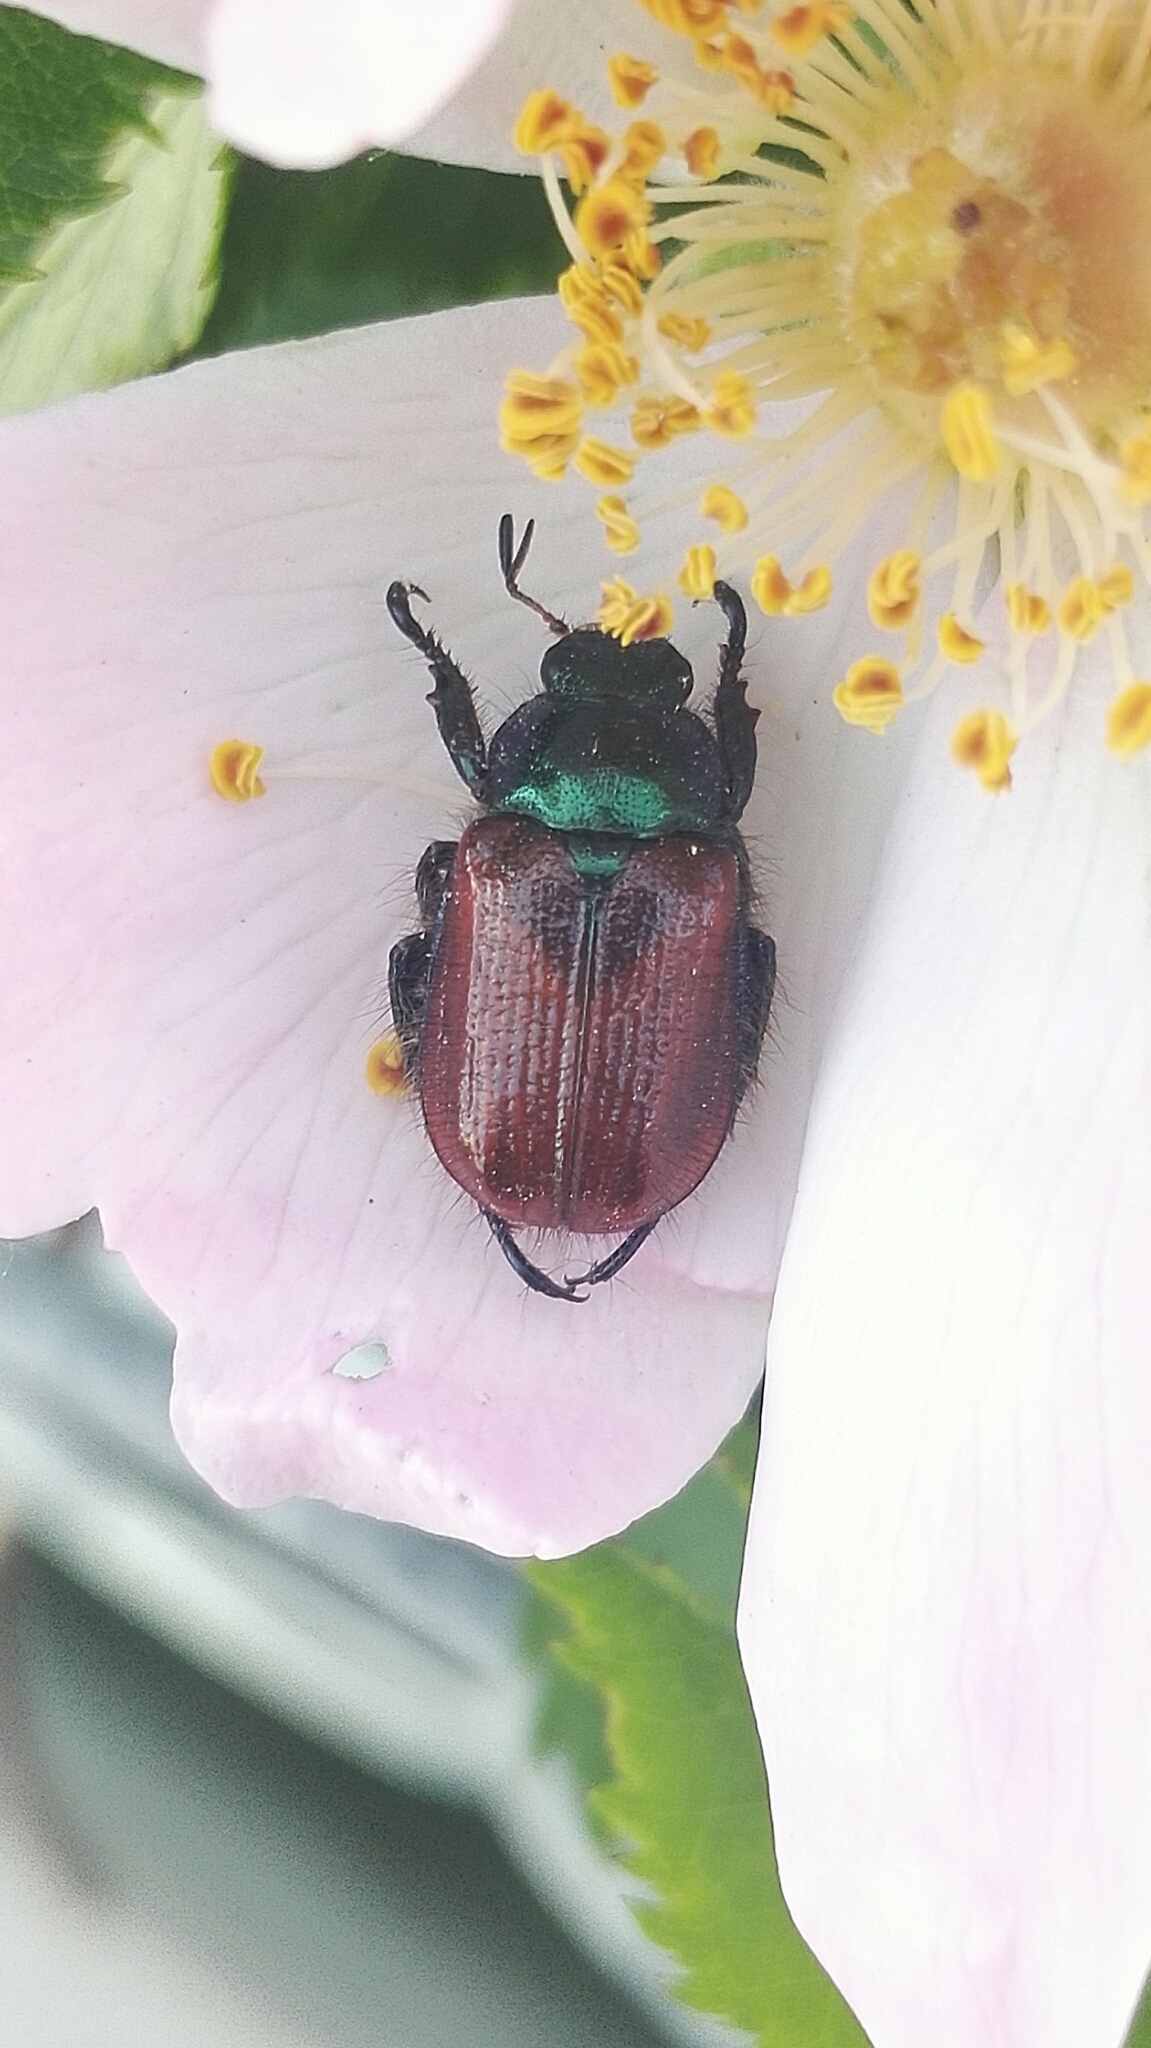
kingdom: Animalia
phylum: Arthropoda
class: Insecta
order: Coleoptera
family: Scarabaeidae
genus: Phyllopertha
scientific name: Phyllopertha horticola
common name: Garden chafer
